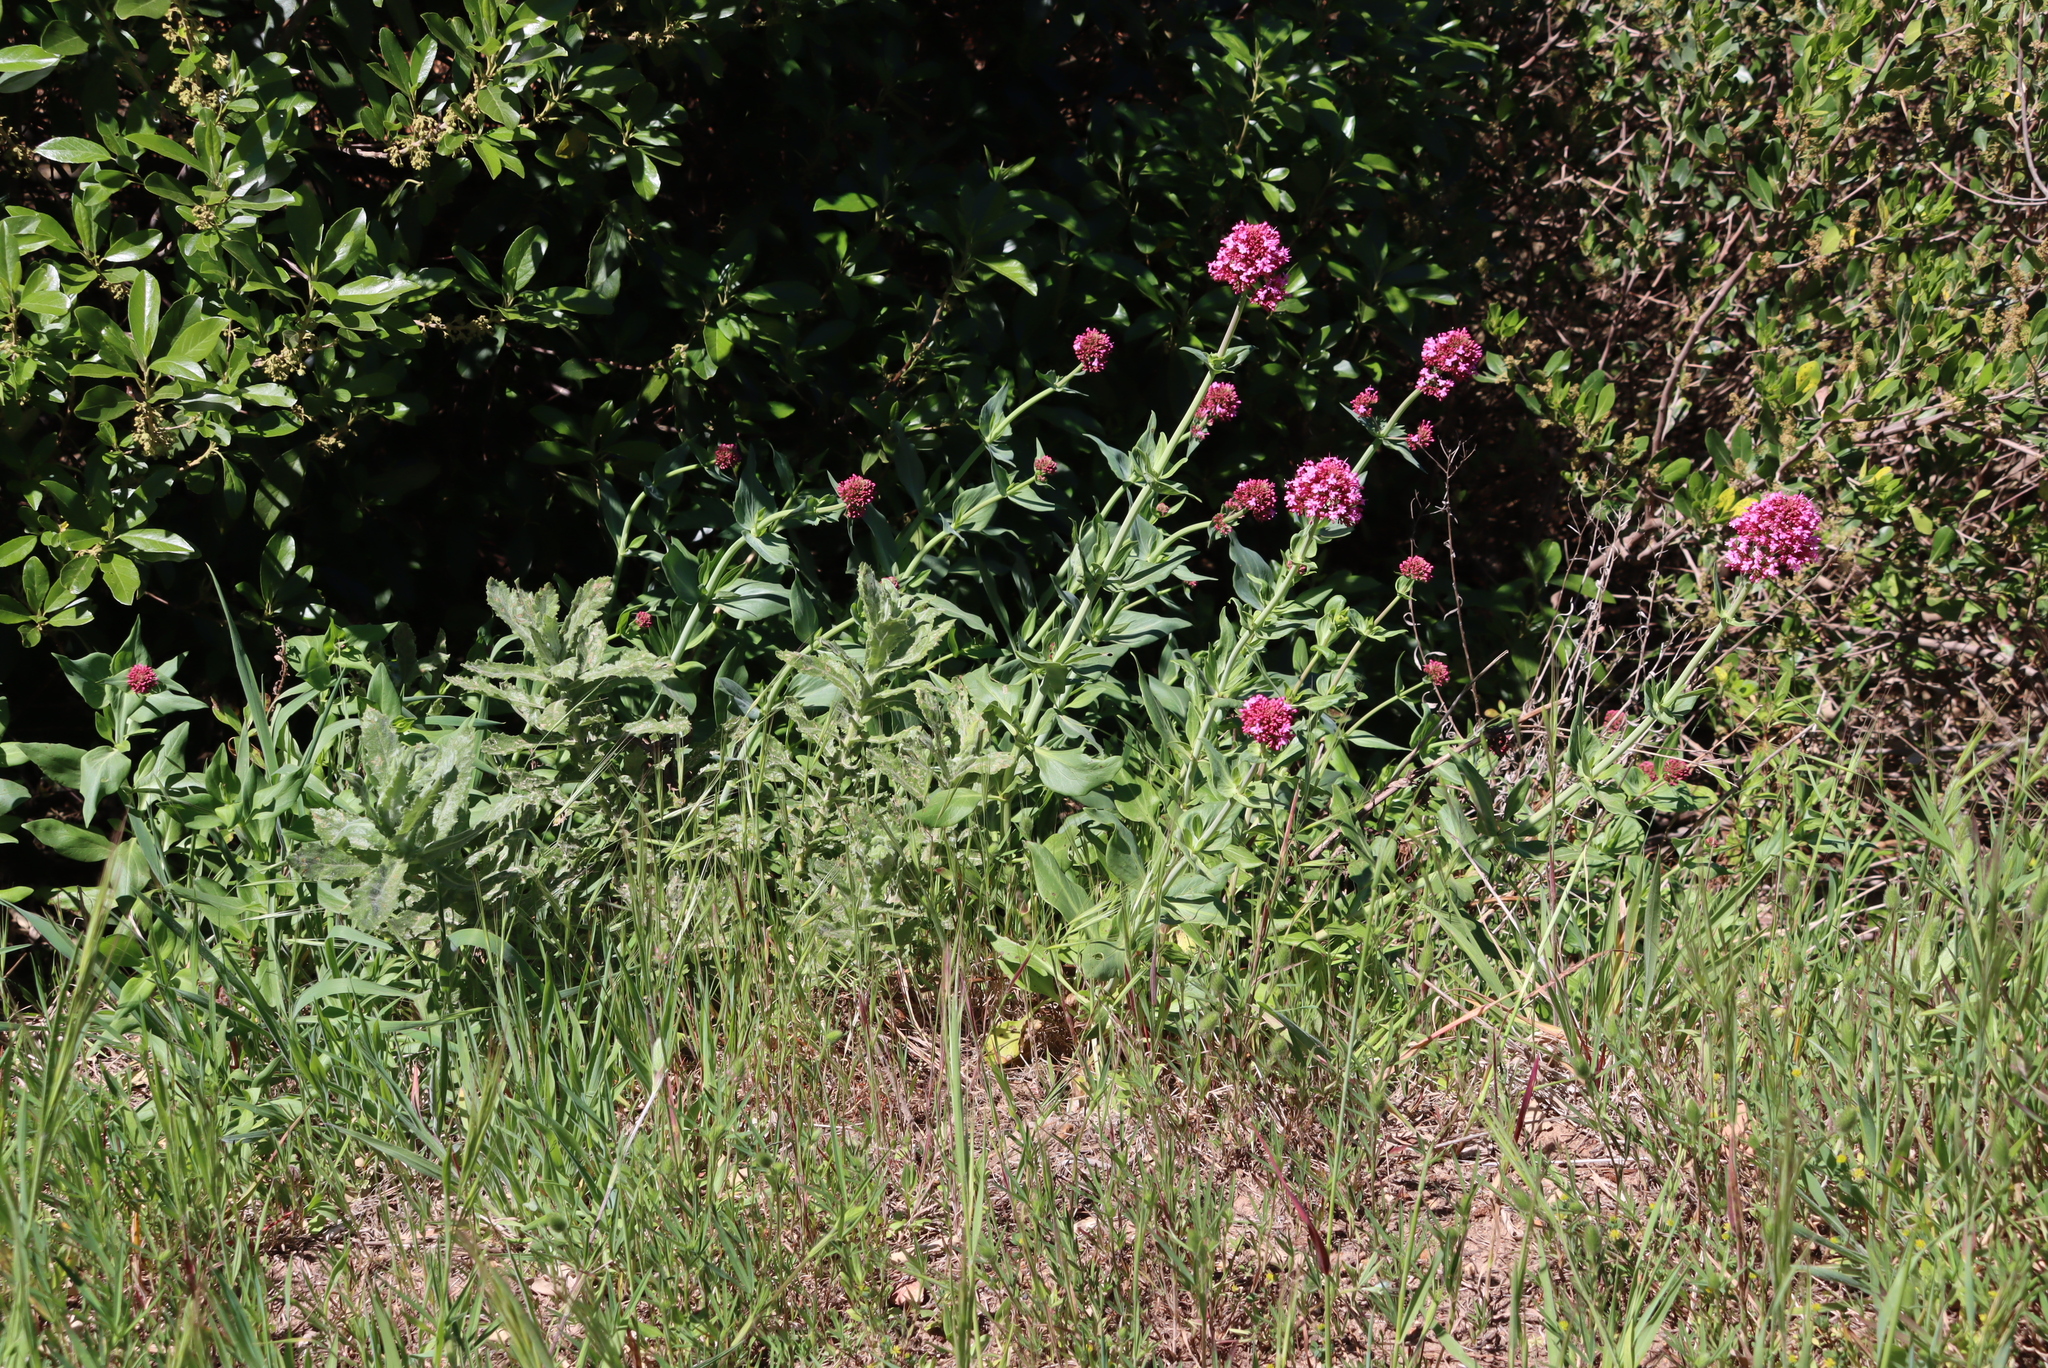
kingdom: Plantae
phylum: Tracheophyta
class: Magnoliopsida
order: Dipsacales
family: Caprifoliaceae
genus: Centranthus
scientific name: Centranthus ruber
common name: Red valerian
